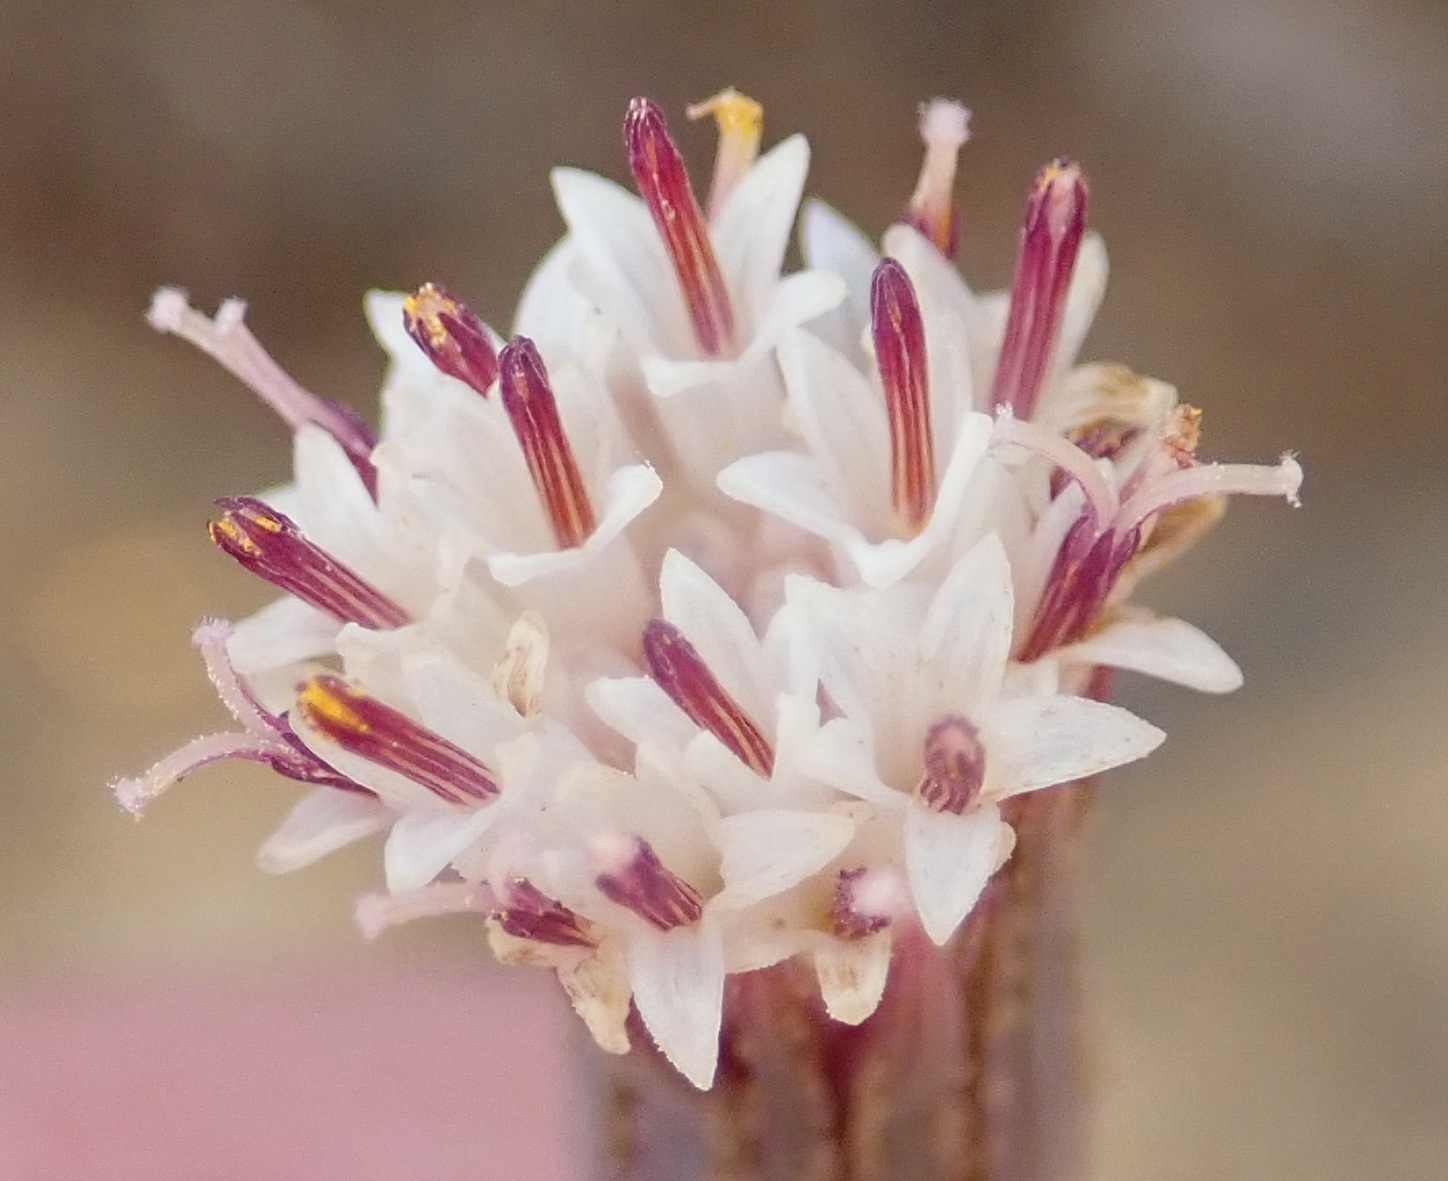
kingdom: Plantae
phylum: Tracheophyta
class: Magnoliopsida
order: Asterales
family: Asteraceae
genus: Curio
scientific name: Curio radicans
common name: Creeping-berry
